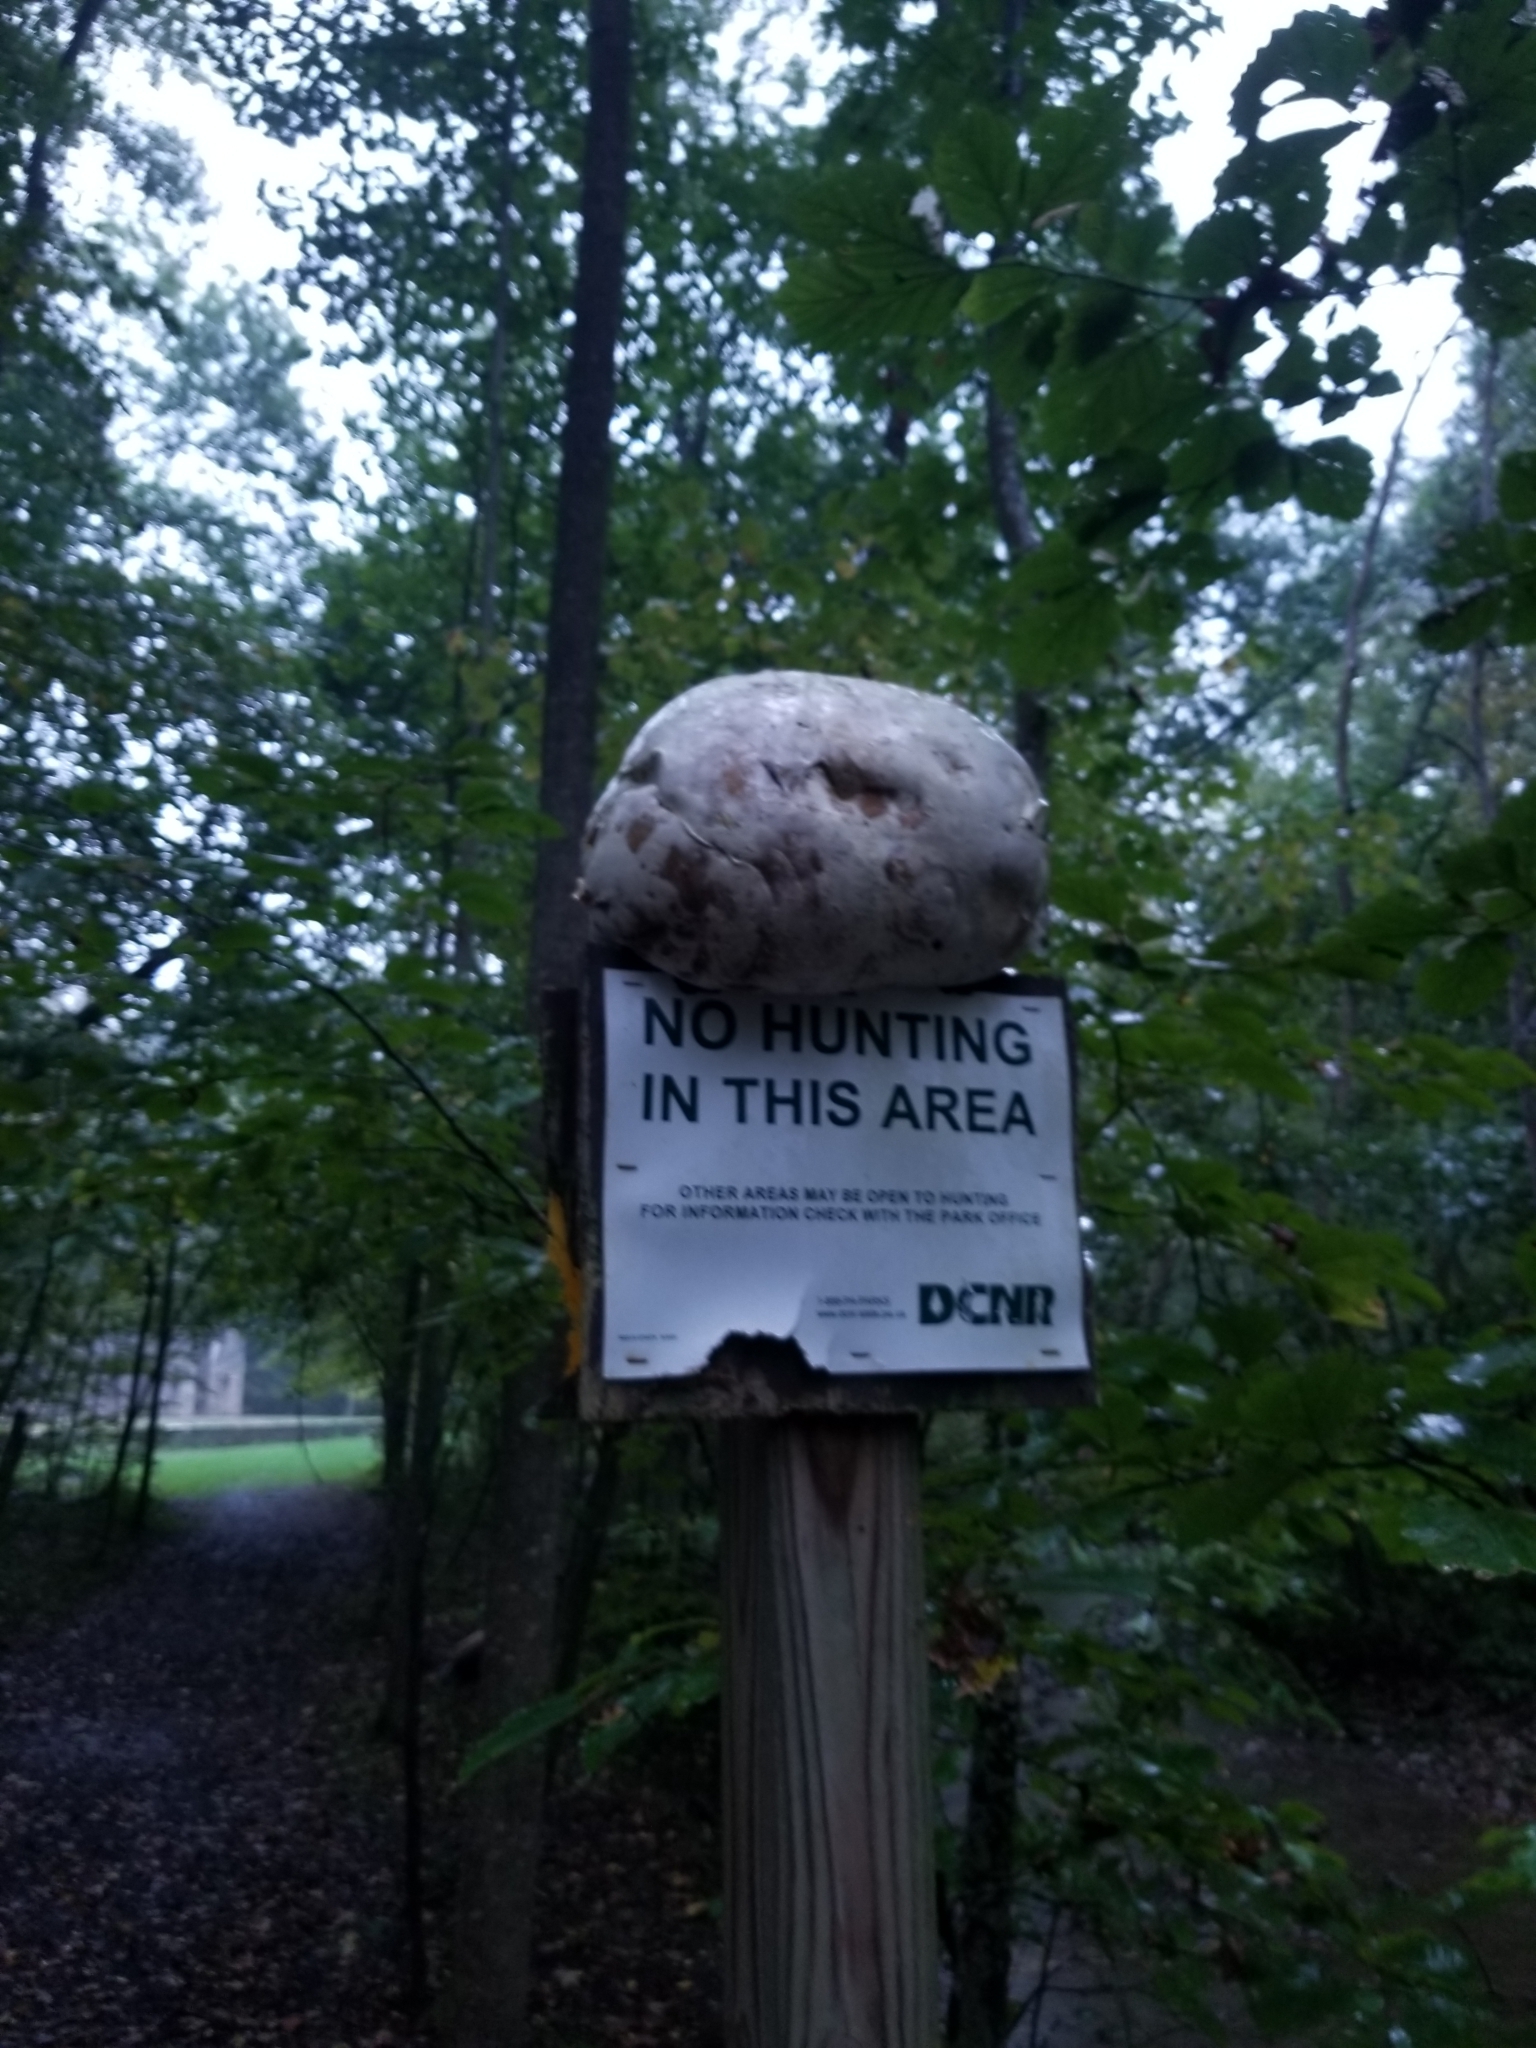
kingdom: Fungi
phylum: Basidiomycota
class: Agaricomycetes
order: Agaricales
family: Lycoperdaceae
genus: Calvatia
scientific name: Calvatia gigantea
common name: Giant puffball
